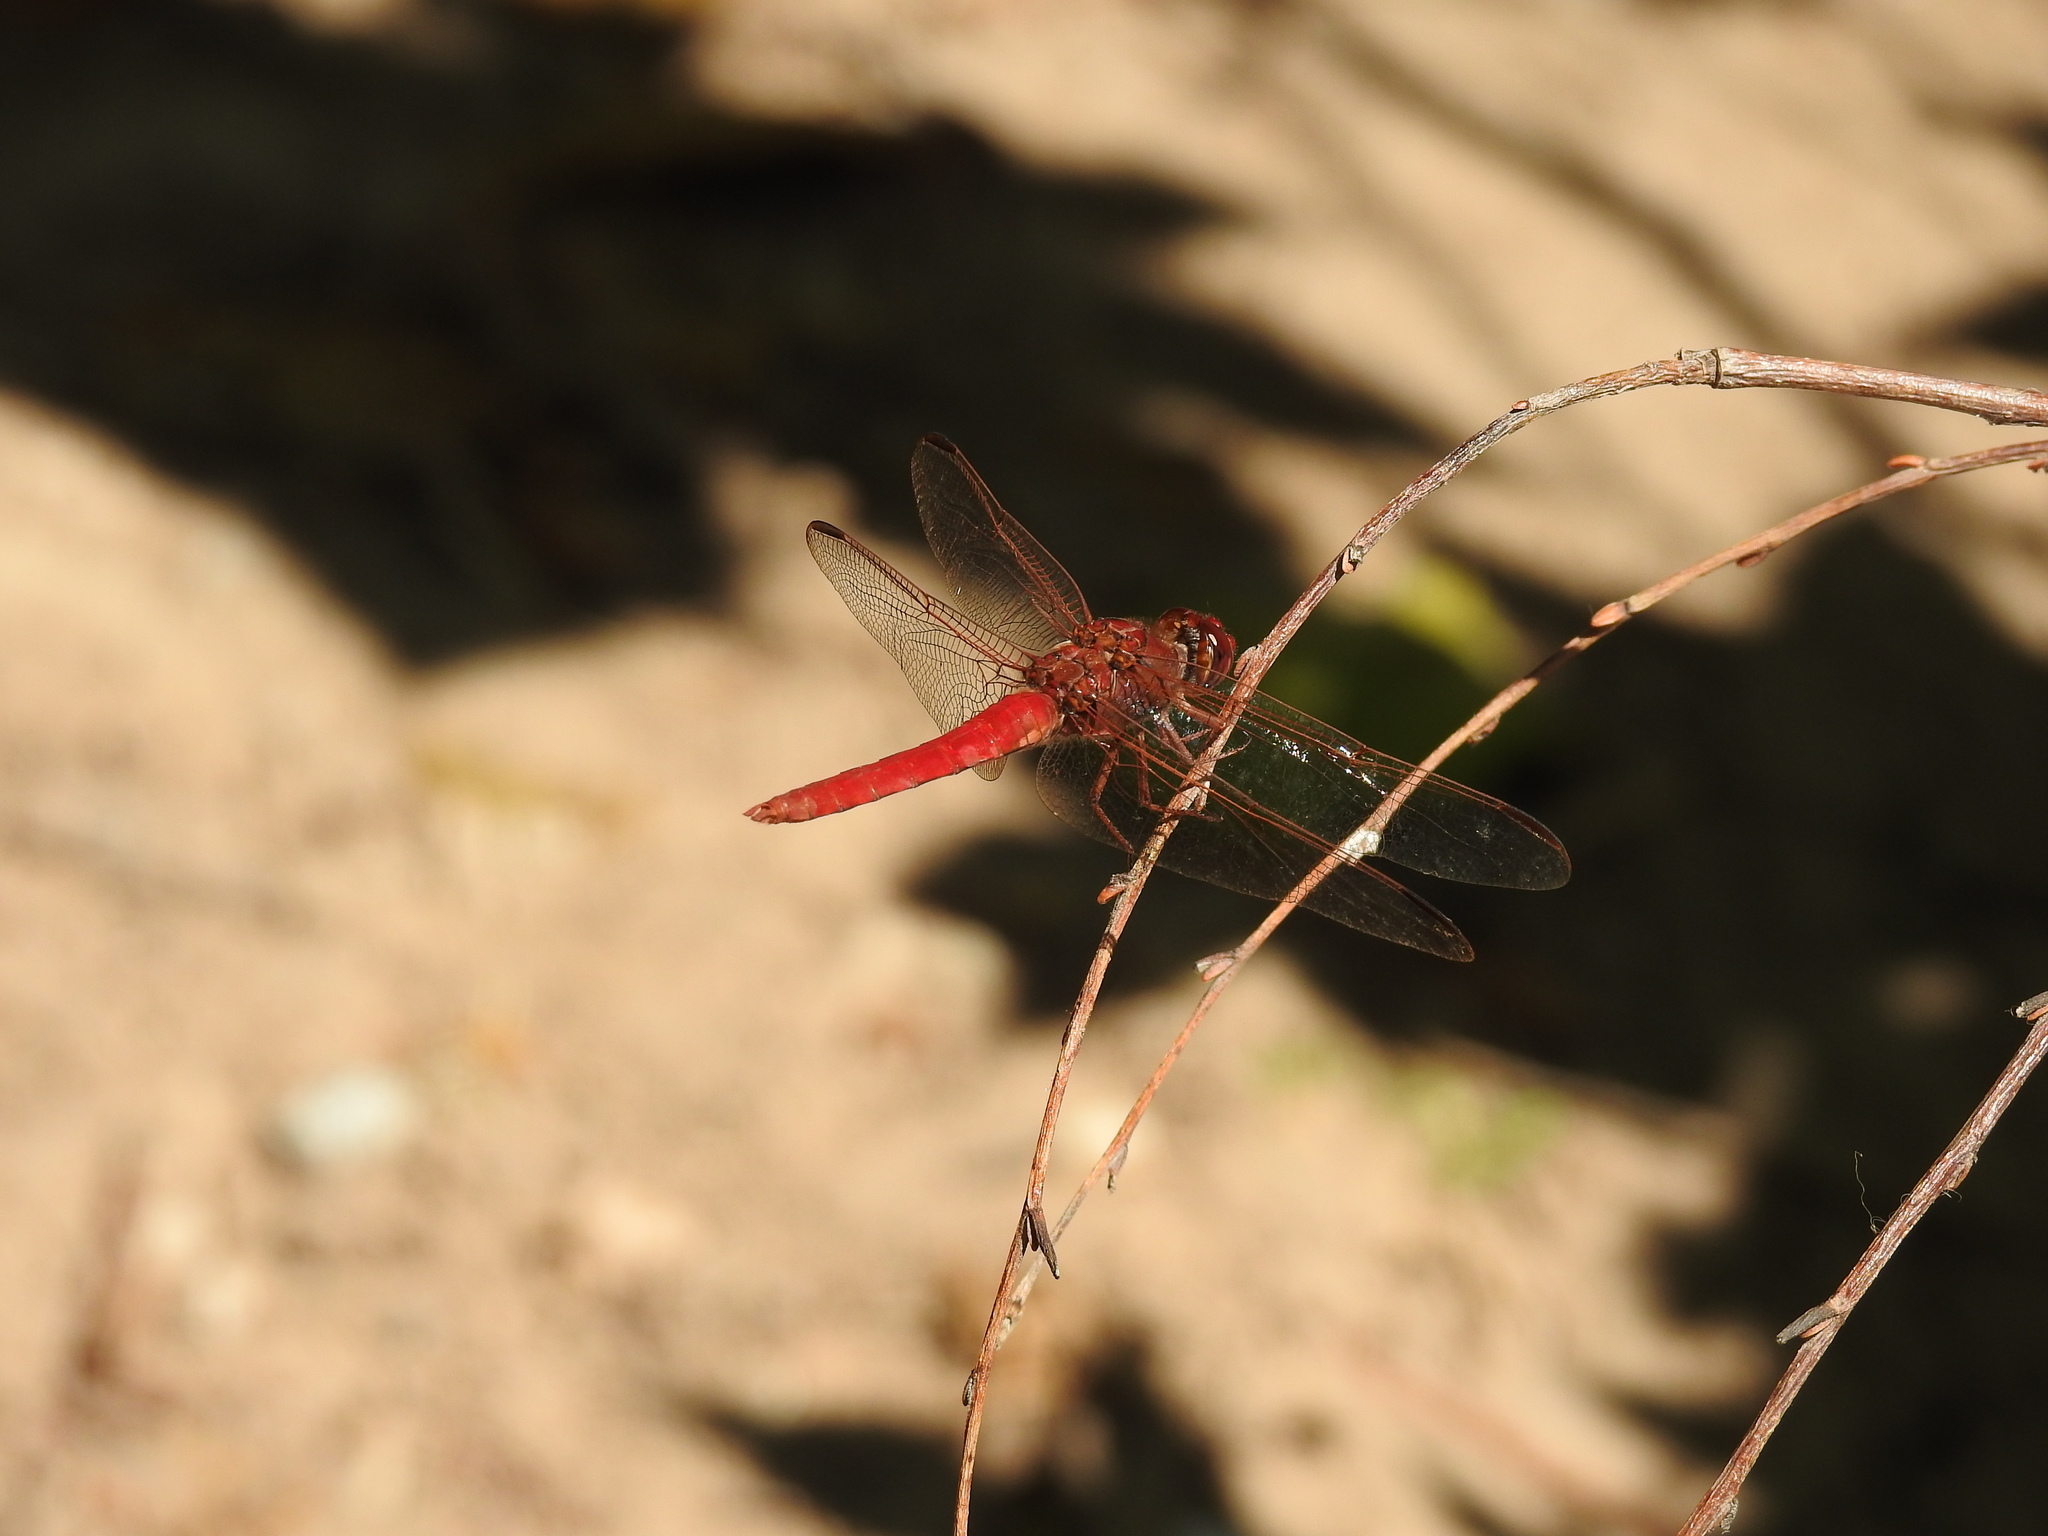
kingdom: Animalia
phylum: Arthropoda
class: Insecta
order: Odonata
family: Libellulidae
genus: Orthemis
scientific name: Orthemis nodiplaga
